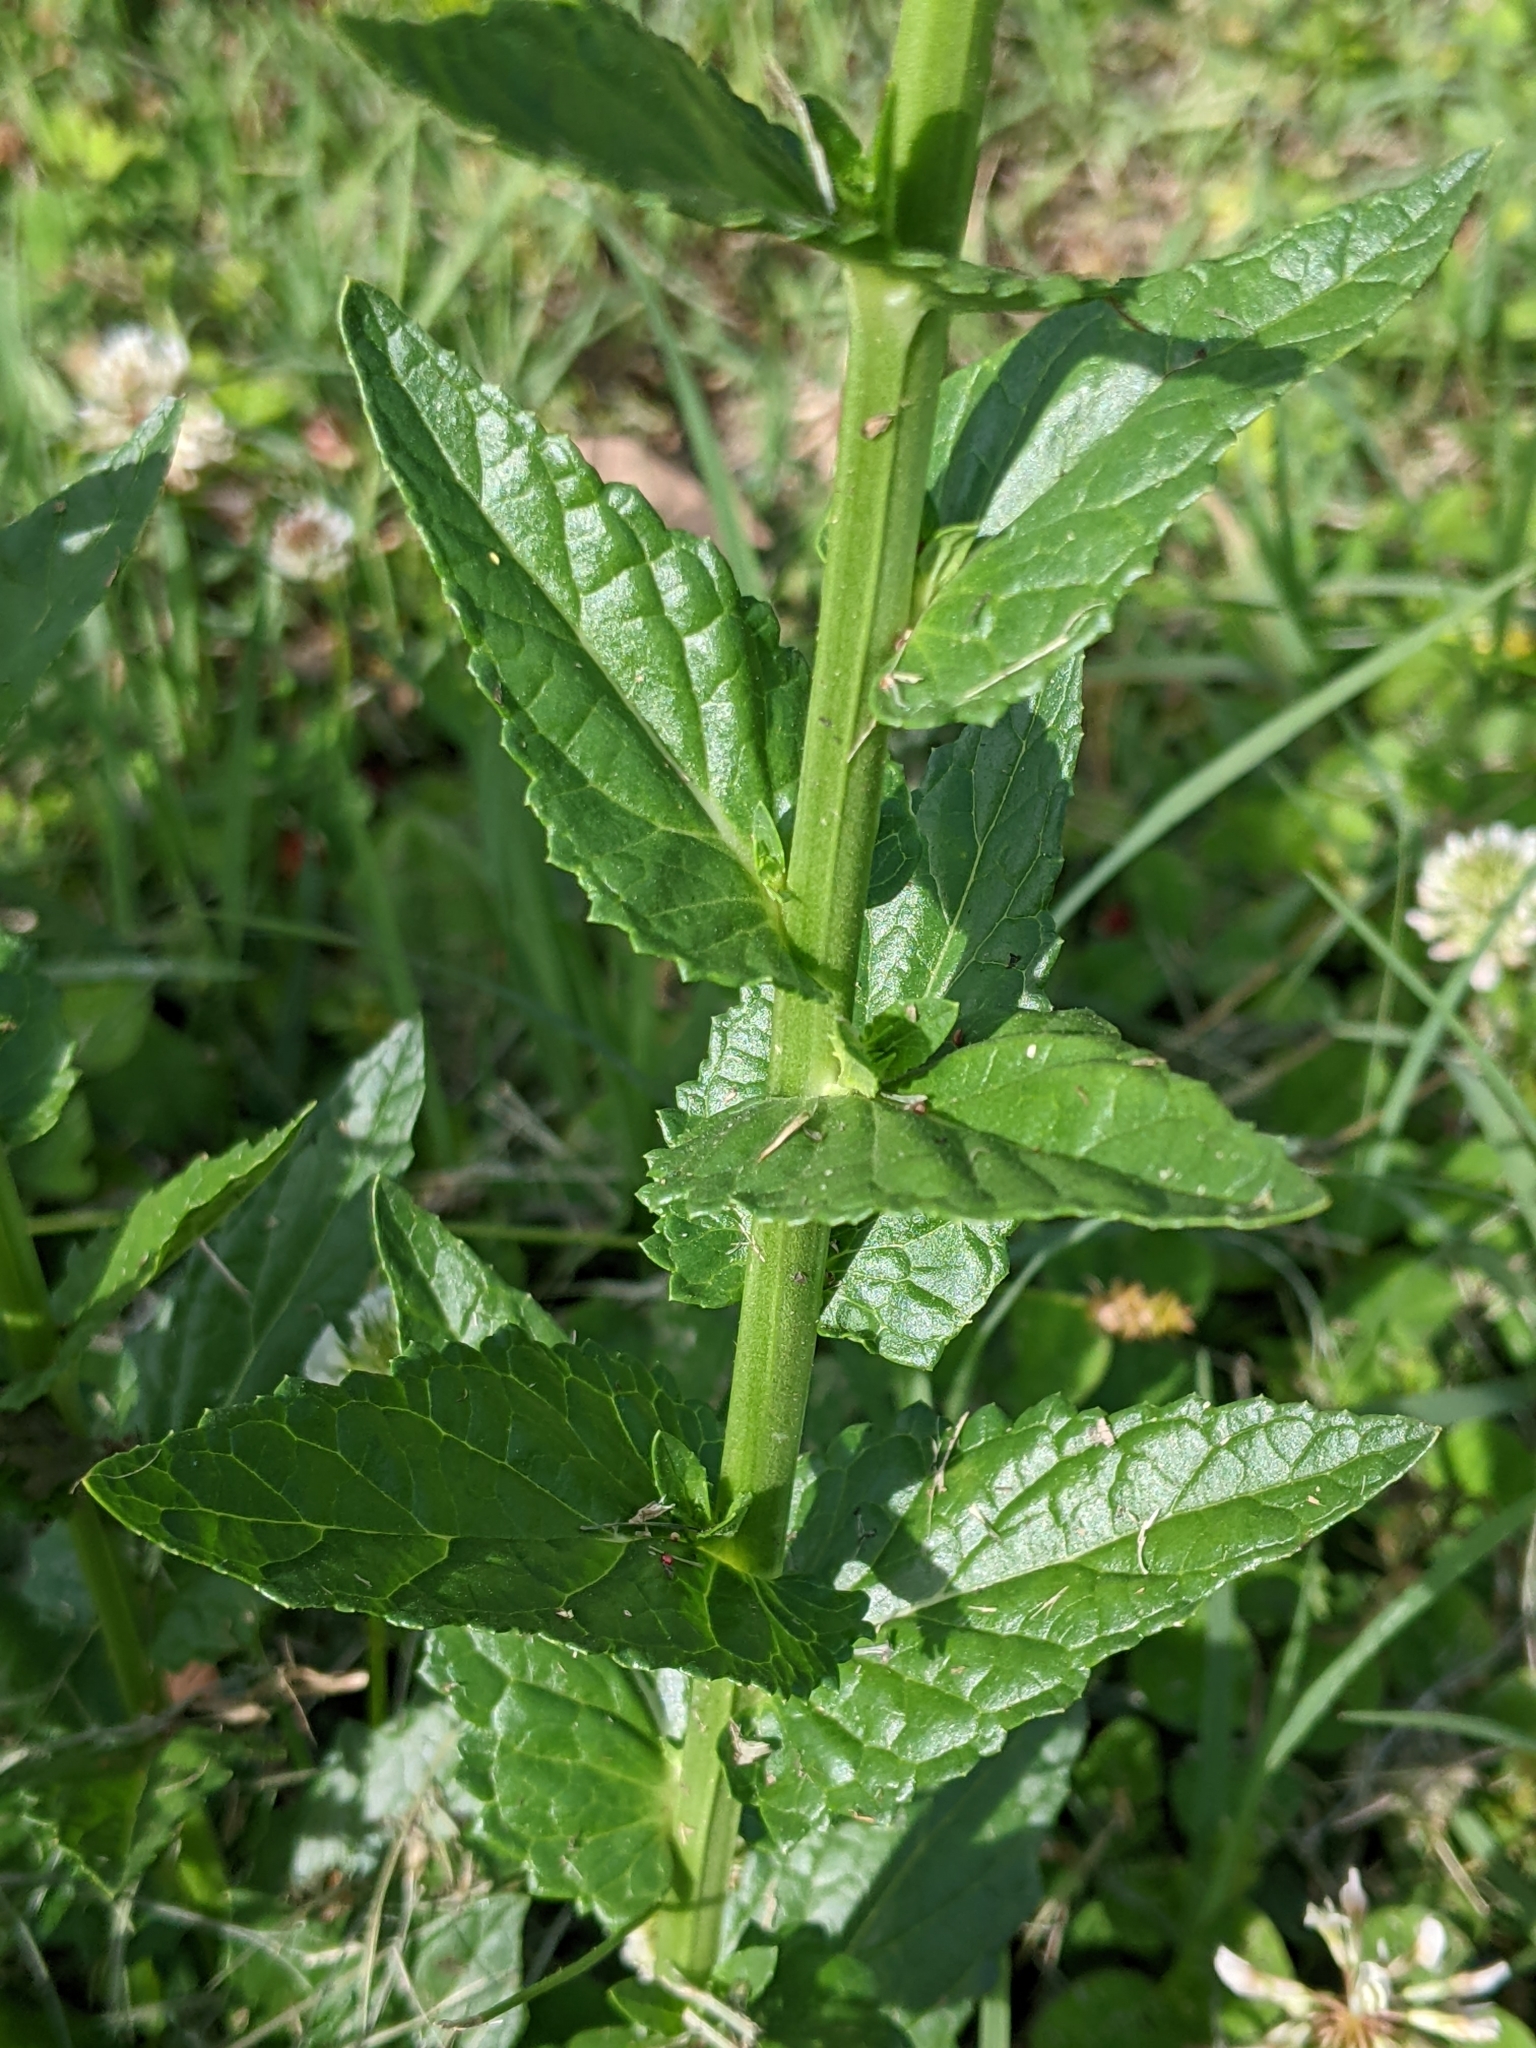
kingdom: Plantae
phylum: Tracheophyta
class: Magnoliopsida
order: Lamiales
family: Scrophulariaceae
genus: Verbascum
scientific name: Verbascum blattaria
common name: Moth mullein
